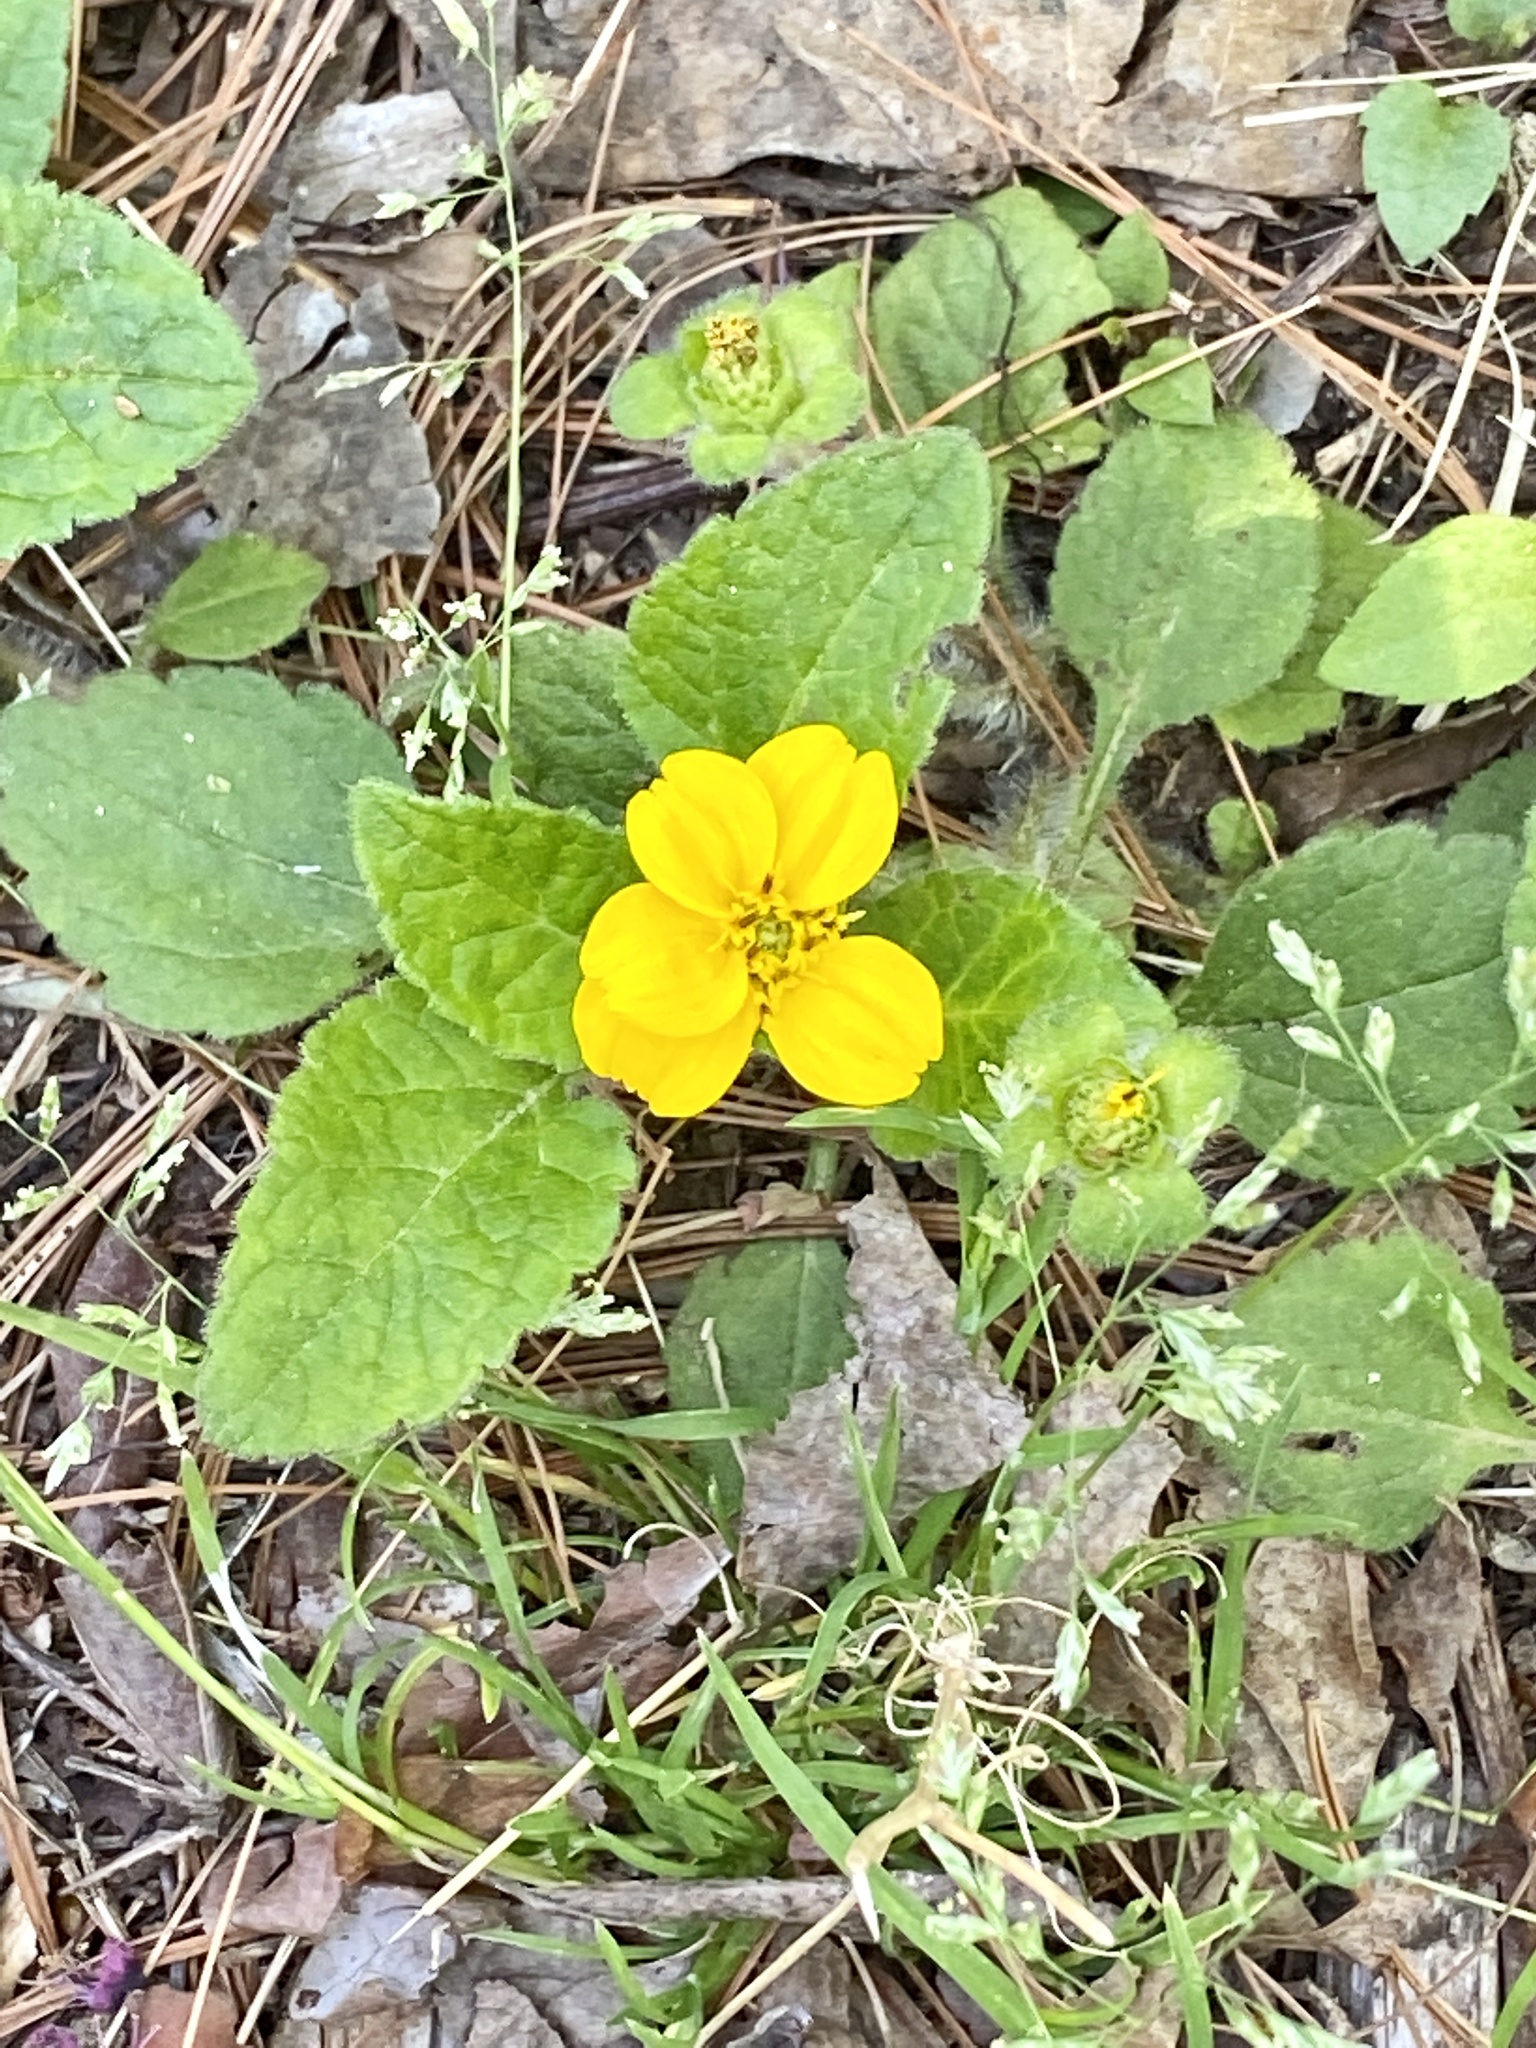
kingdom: Plantae
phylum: Tracheophyta
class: Magnoliopsida
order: Asterales
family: Asteraceae
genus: Chrysogonum
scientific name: Chrysogonum virginianum
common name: Golden-knee
